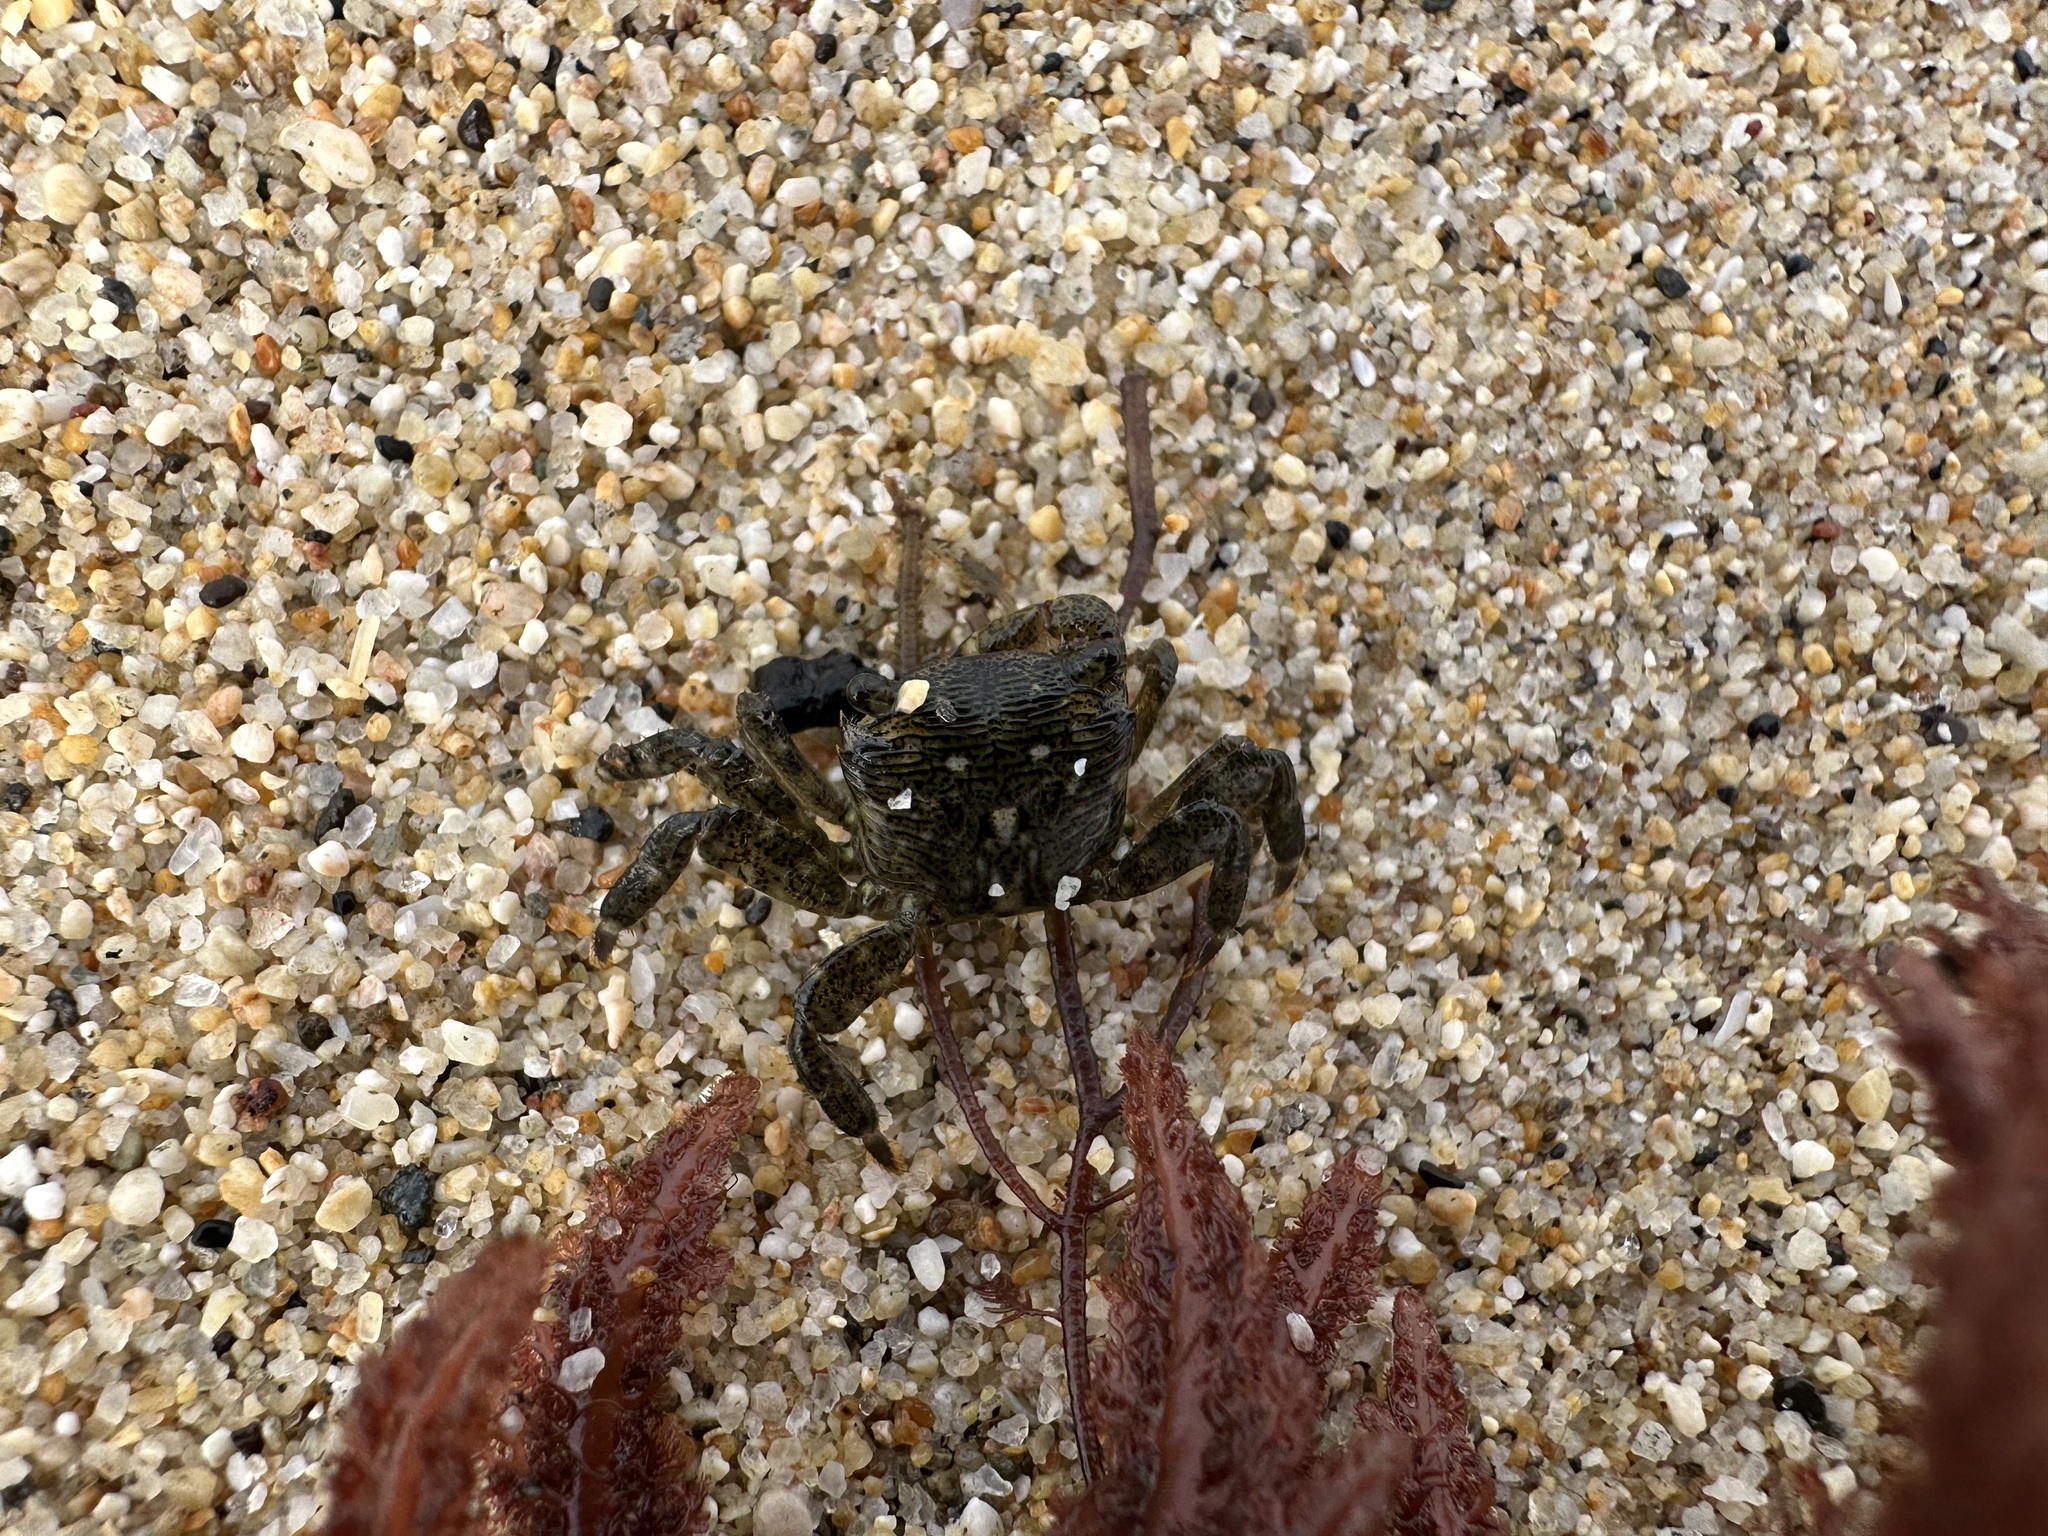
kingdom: Animalia
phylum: Arthropoda
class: Malacostraca
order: Decapoda
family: Grapsidae
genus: Pachygrapsus
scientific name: Pachygrapsus crassipes
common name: Striped shore crab
